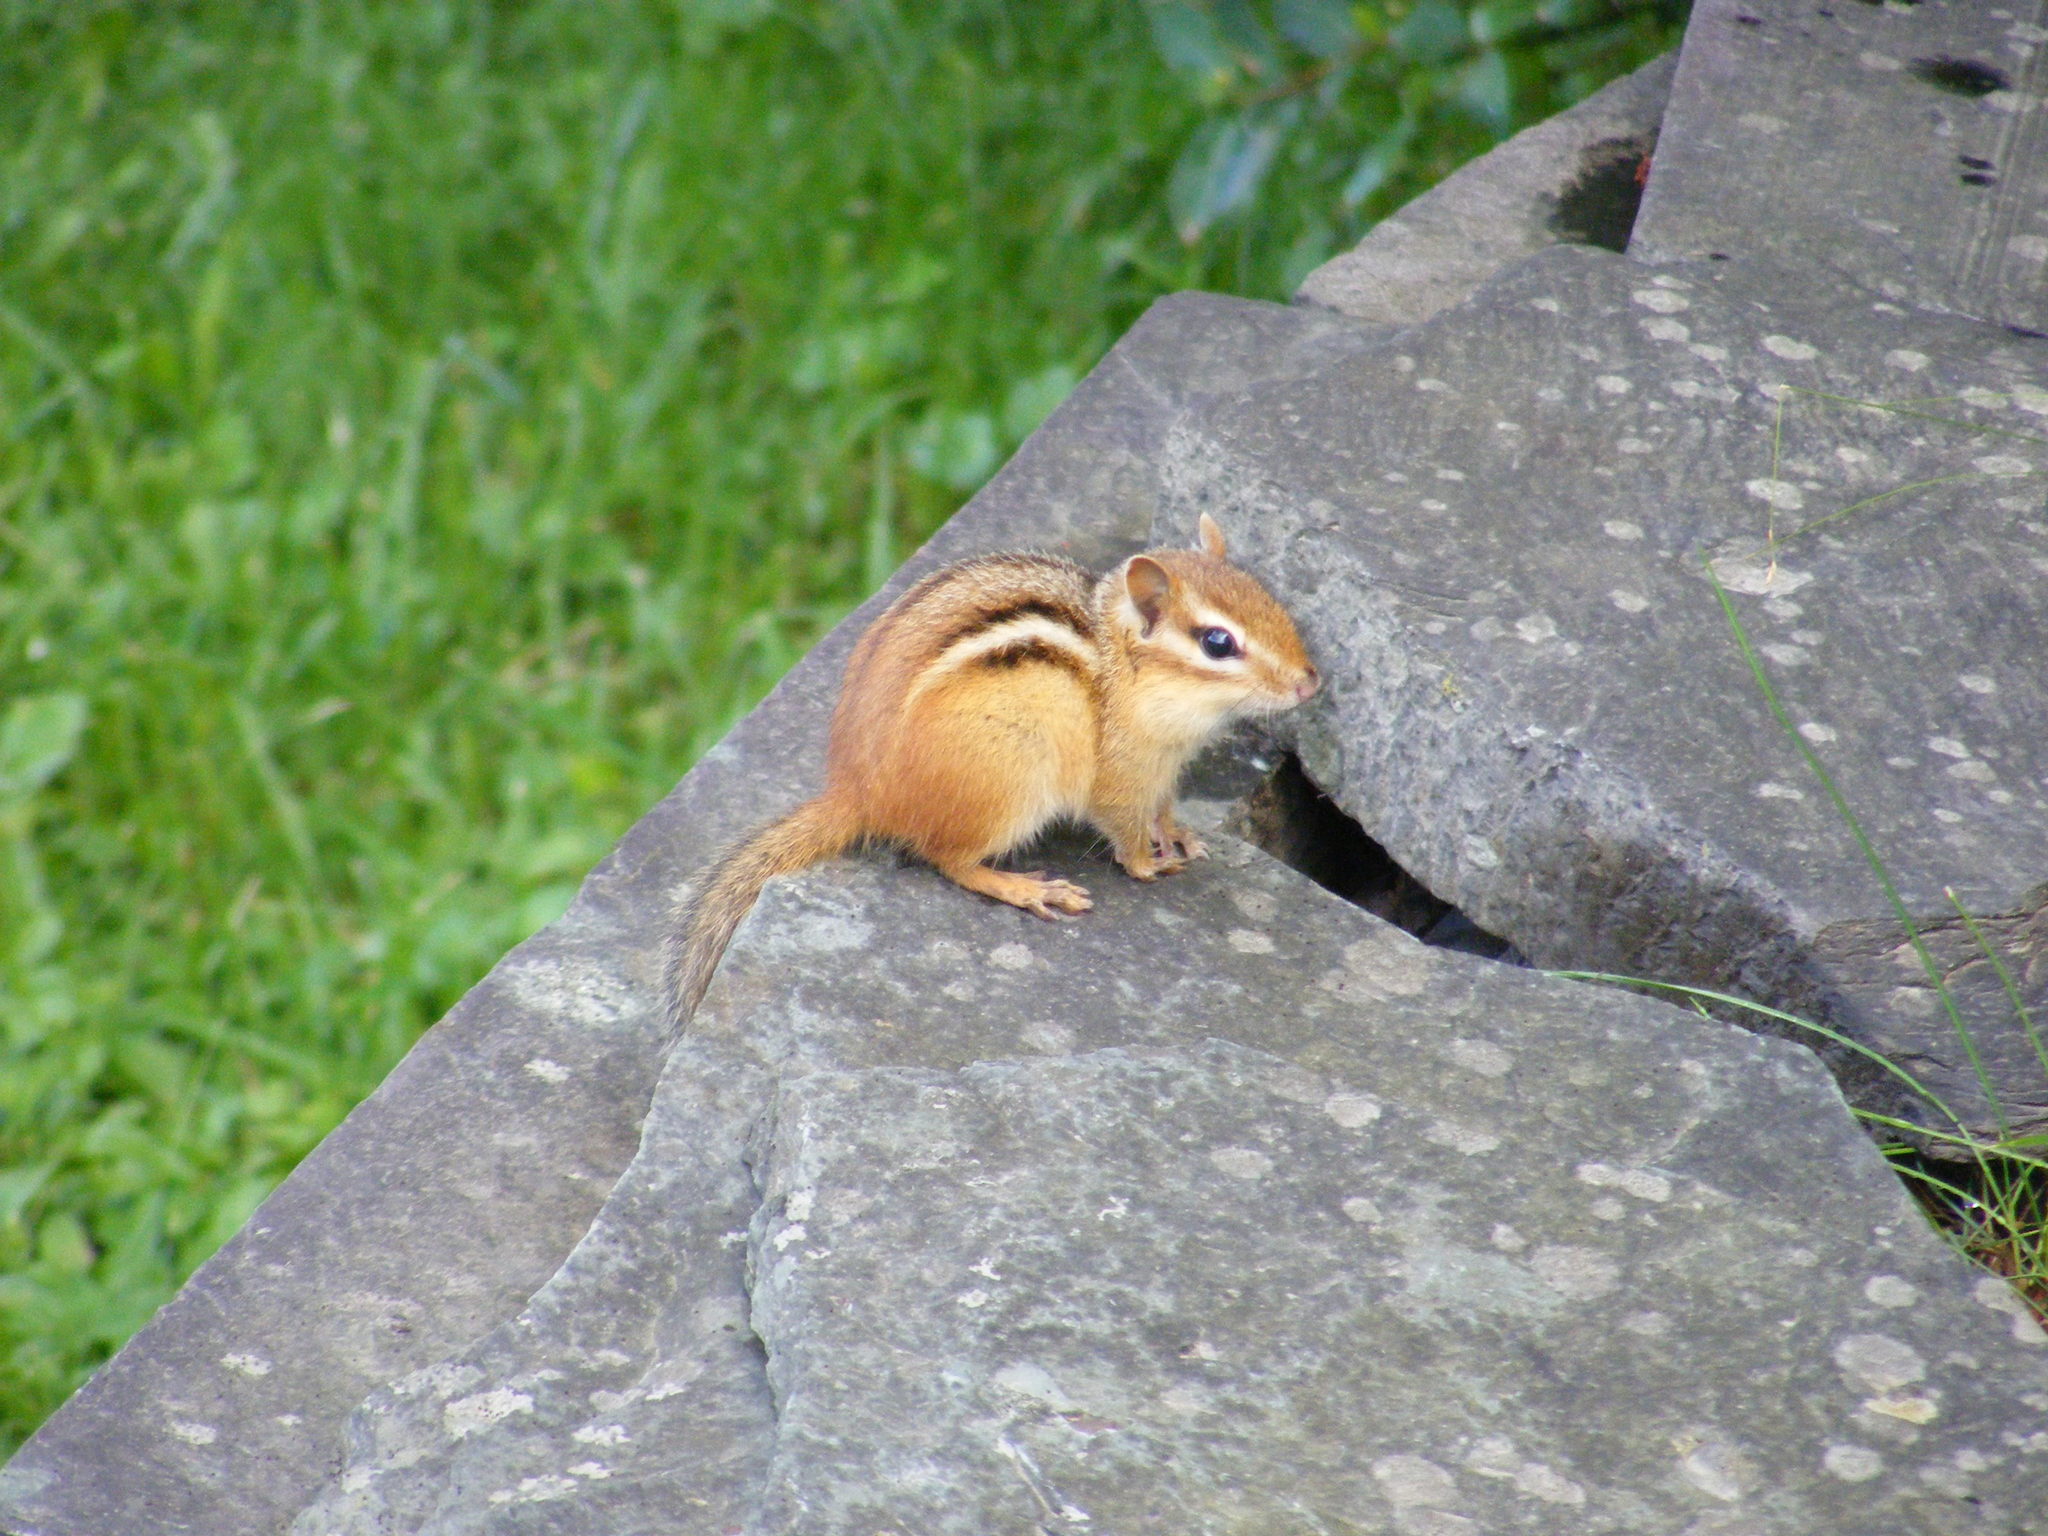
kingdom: Animalia
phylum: Chordata
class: Mammalia
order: Rodentia
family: Sciuridae
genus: Tamias
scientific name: Tamias striatus
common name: Eastern chipmunk
